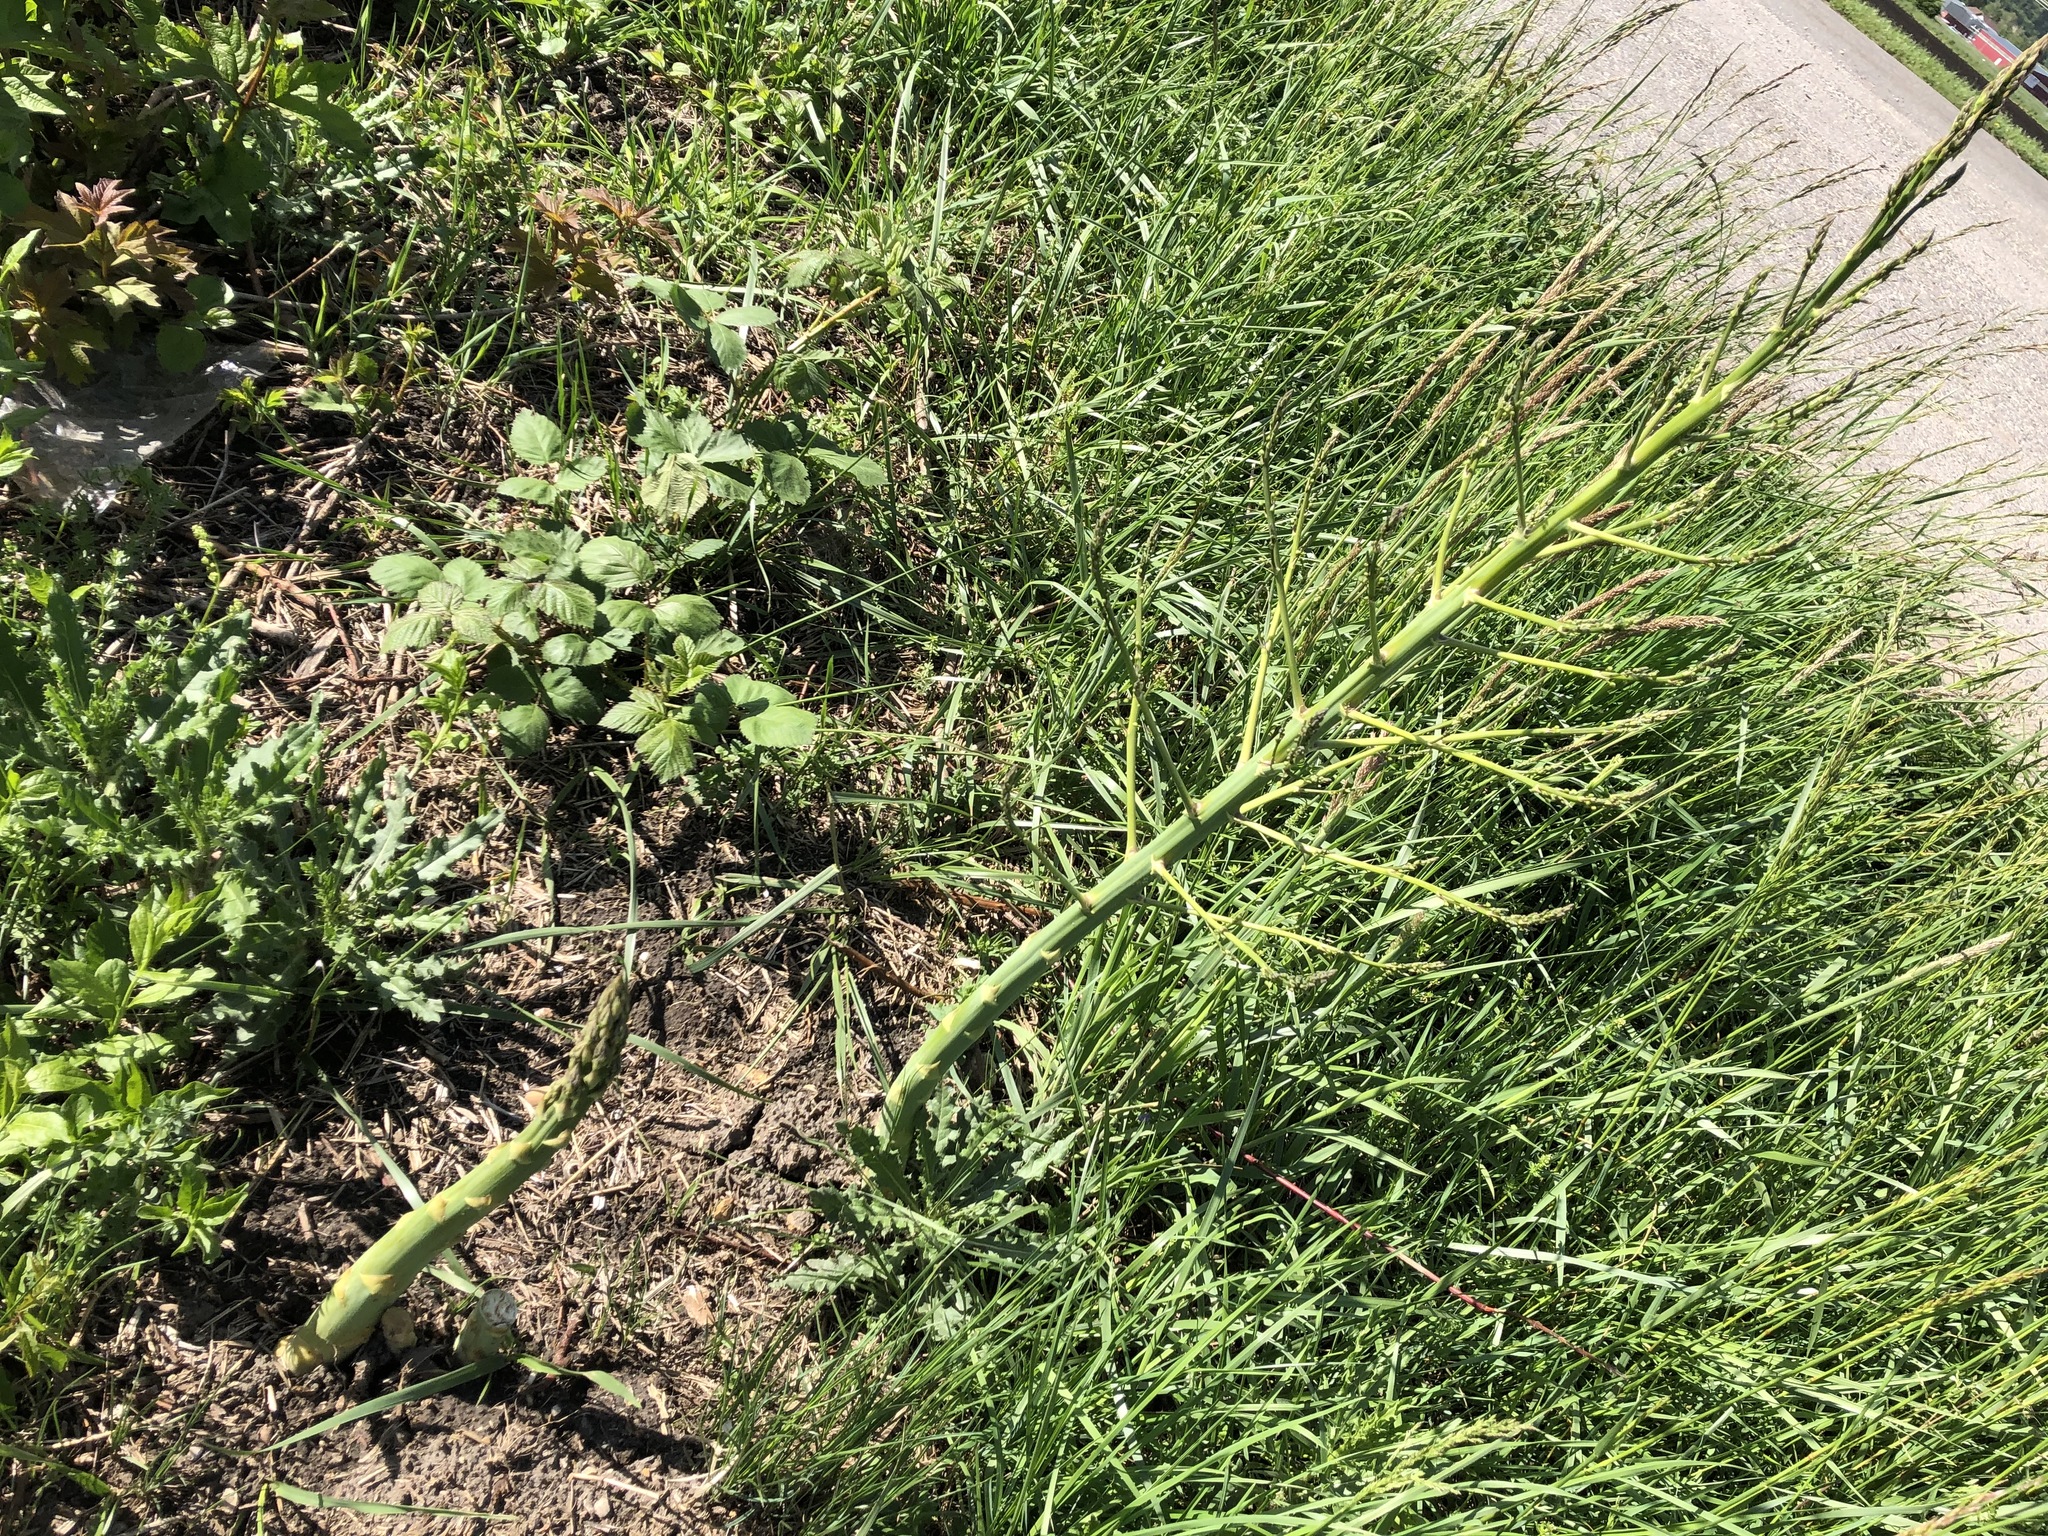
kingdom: Plantae
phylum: Tracheophyta
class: Liliopsida
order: Asparagales
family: Asparagaceae
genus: Asparagus
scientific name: Asparagus officinalis
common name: Garden asparagus
